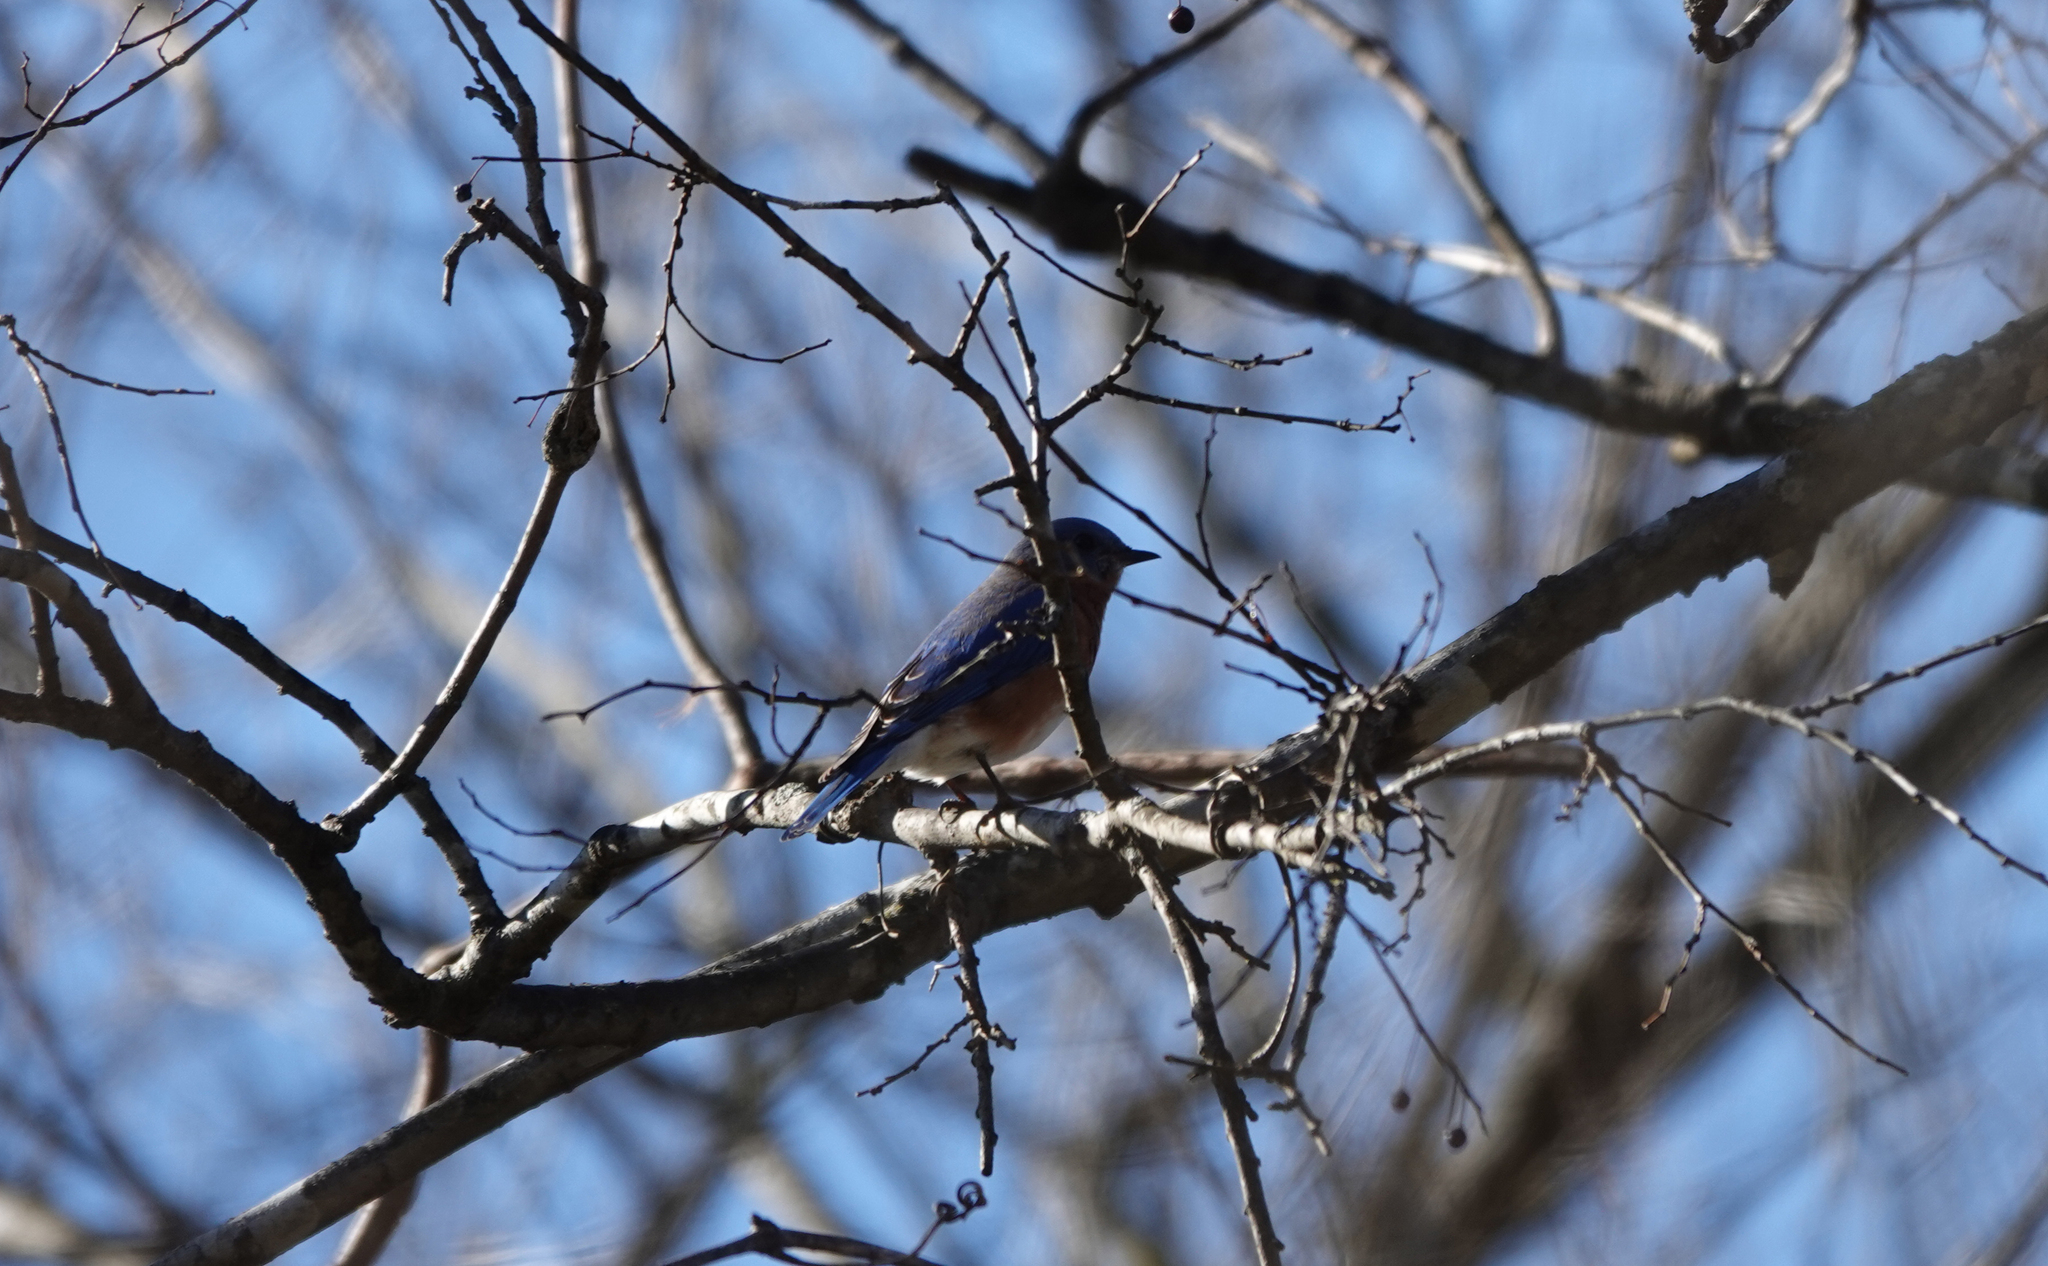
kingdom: Animalia
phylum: Chordata
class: Aves
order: Passeriformes
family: Turdidae
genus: Sialia
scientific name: Sialia sialis
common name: Eastern bluebird
